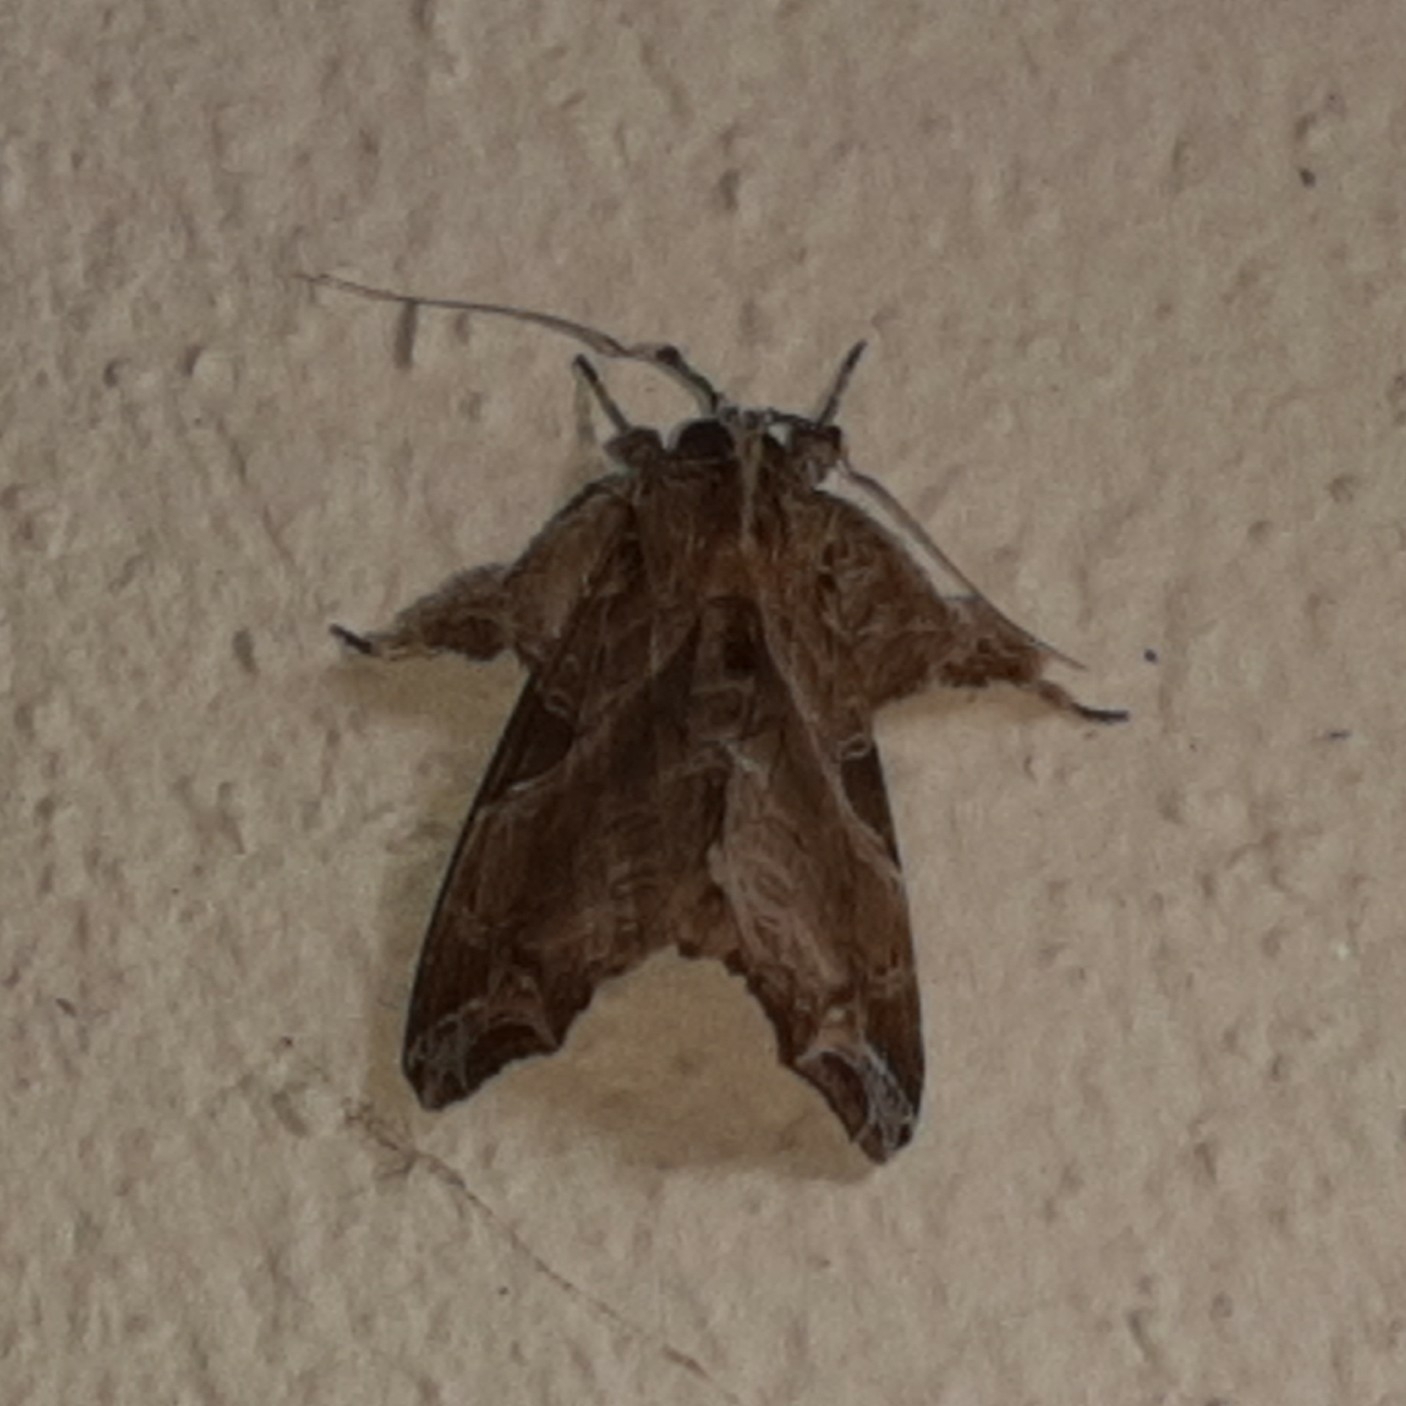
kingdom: Animalia
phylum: Arthropoda
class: Insecta
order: Lepidoptera
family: Noctuidae
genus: Callopistria
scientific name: Callopistria floridensis
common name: Florida fern moth
